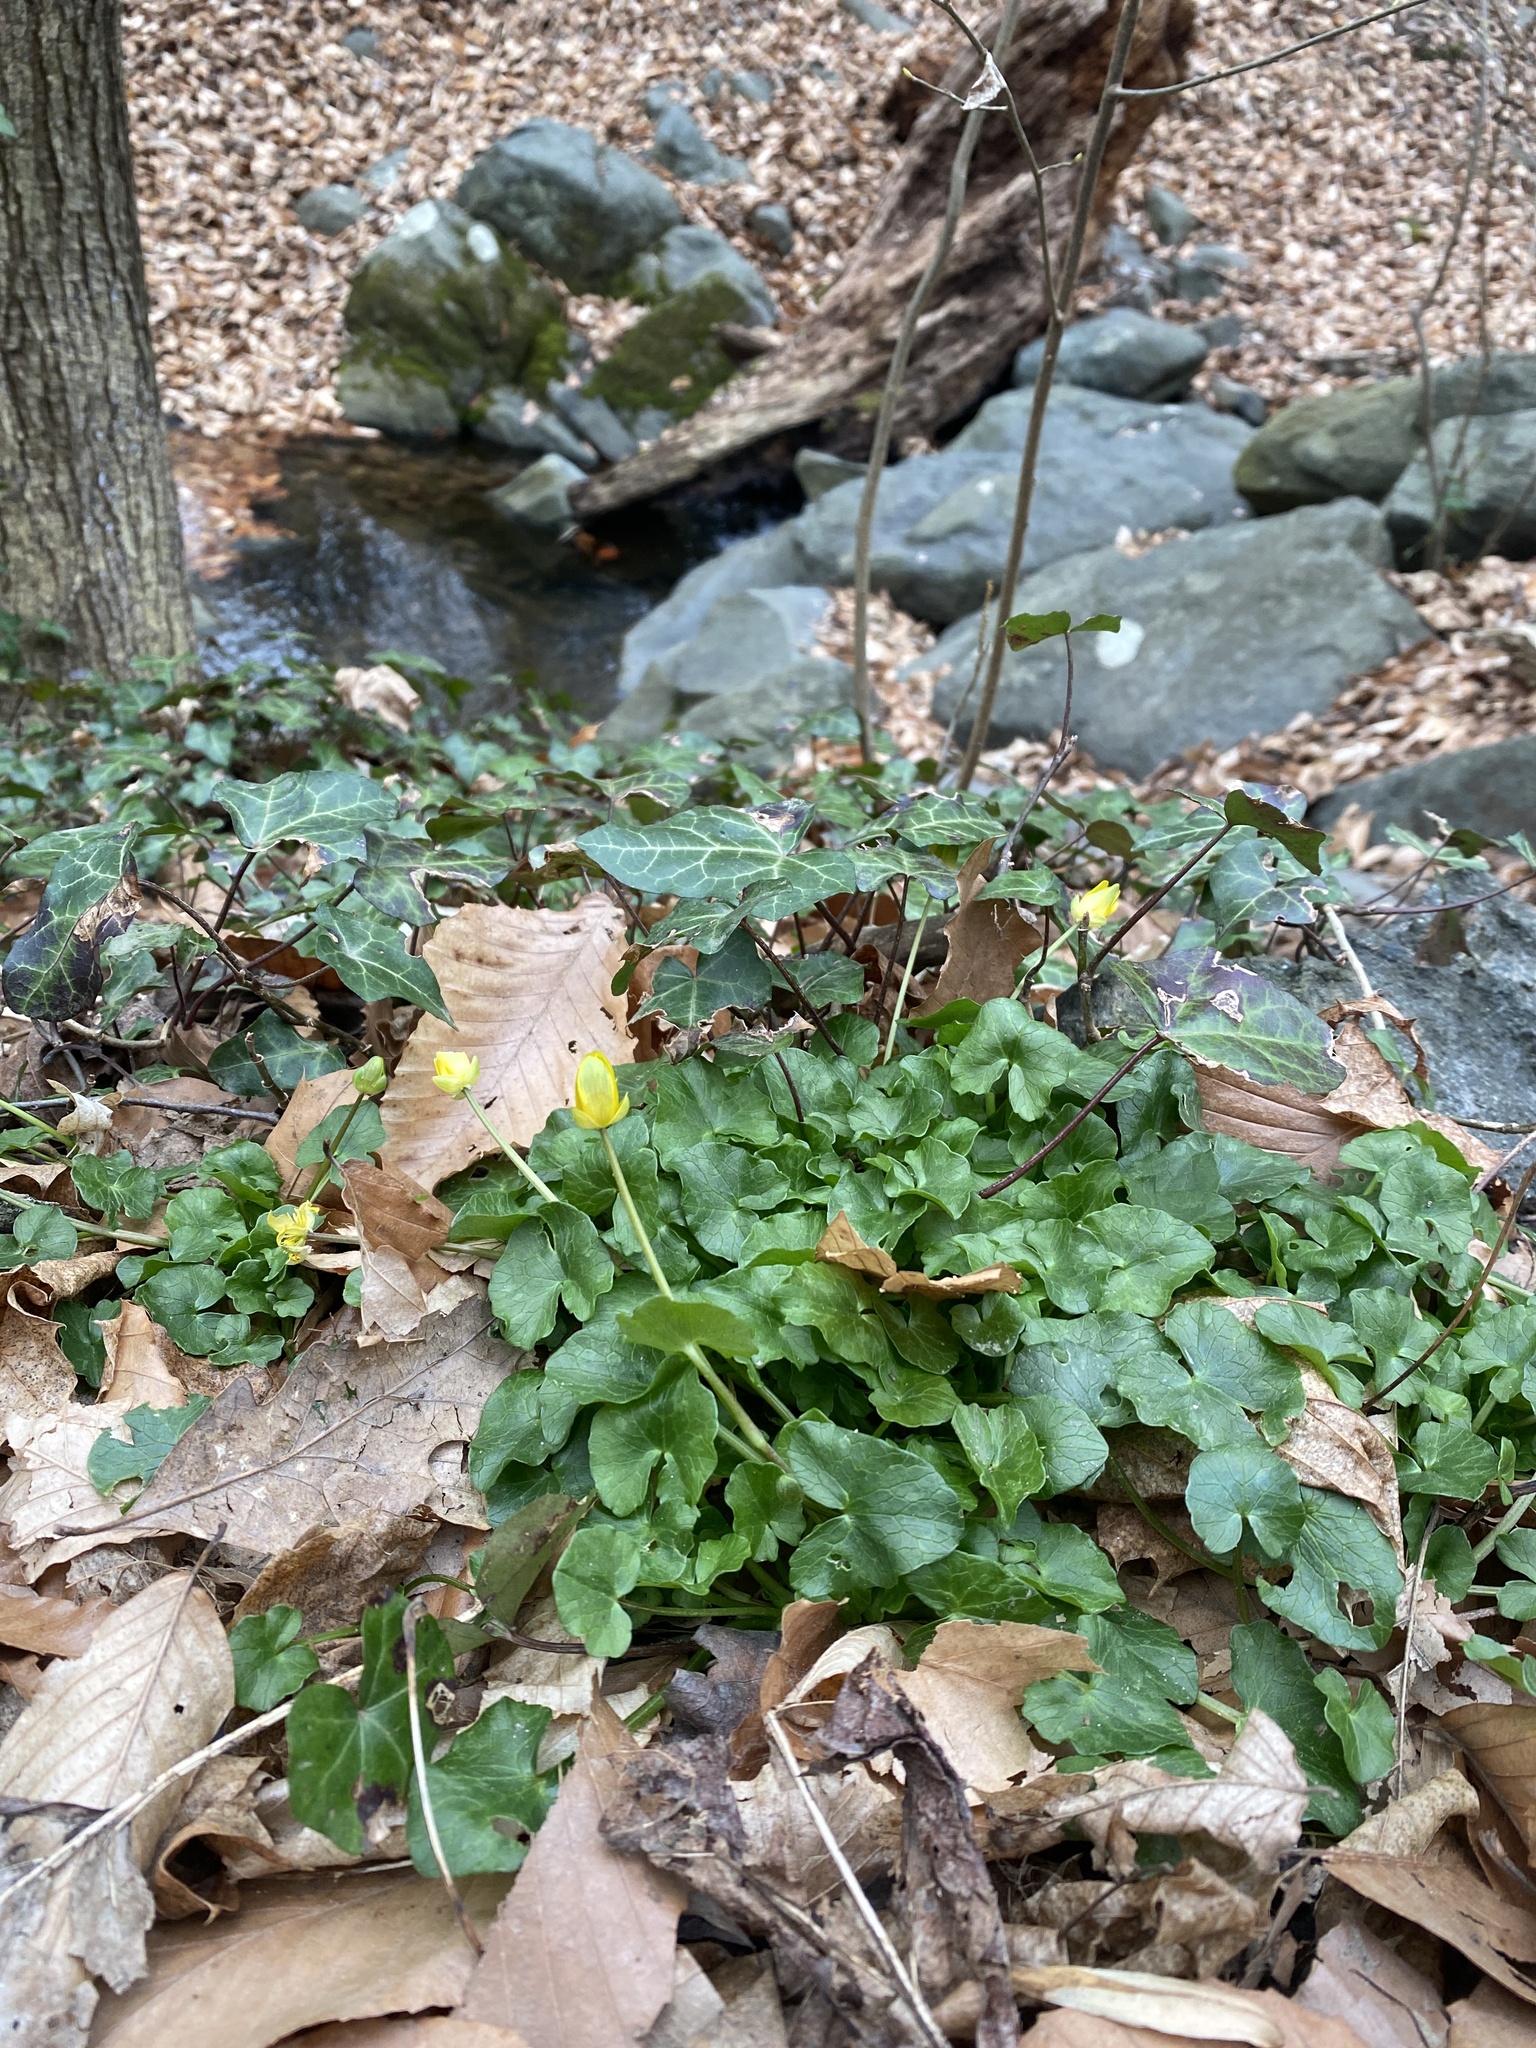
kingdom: Plantae
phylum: Tracheophyta
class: Magnoliopsida
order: Ranunculales
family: Ranunculaceae
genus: Ficaria
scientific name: Ficaria verna
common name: Lesser celandine
